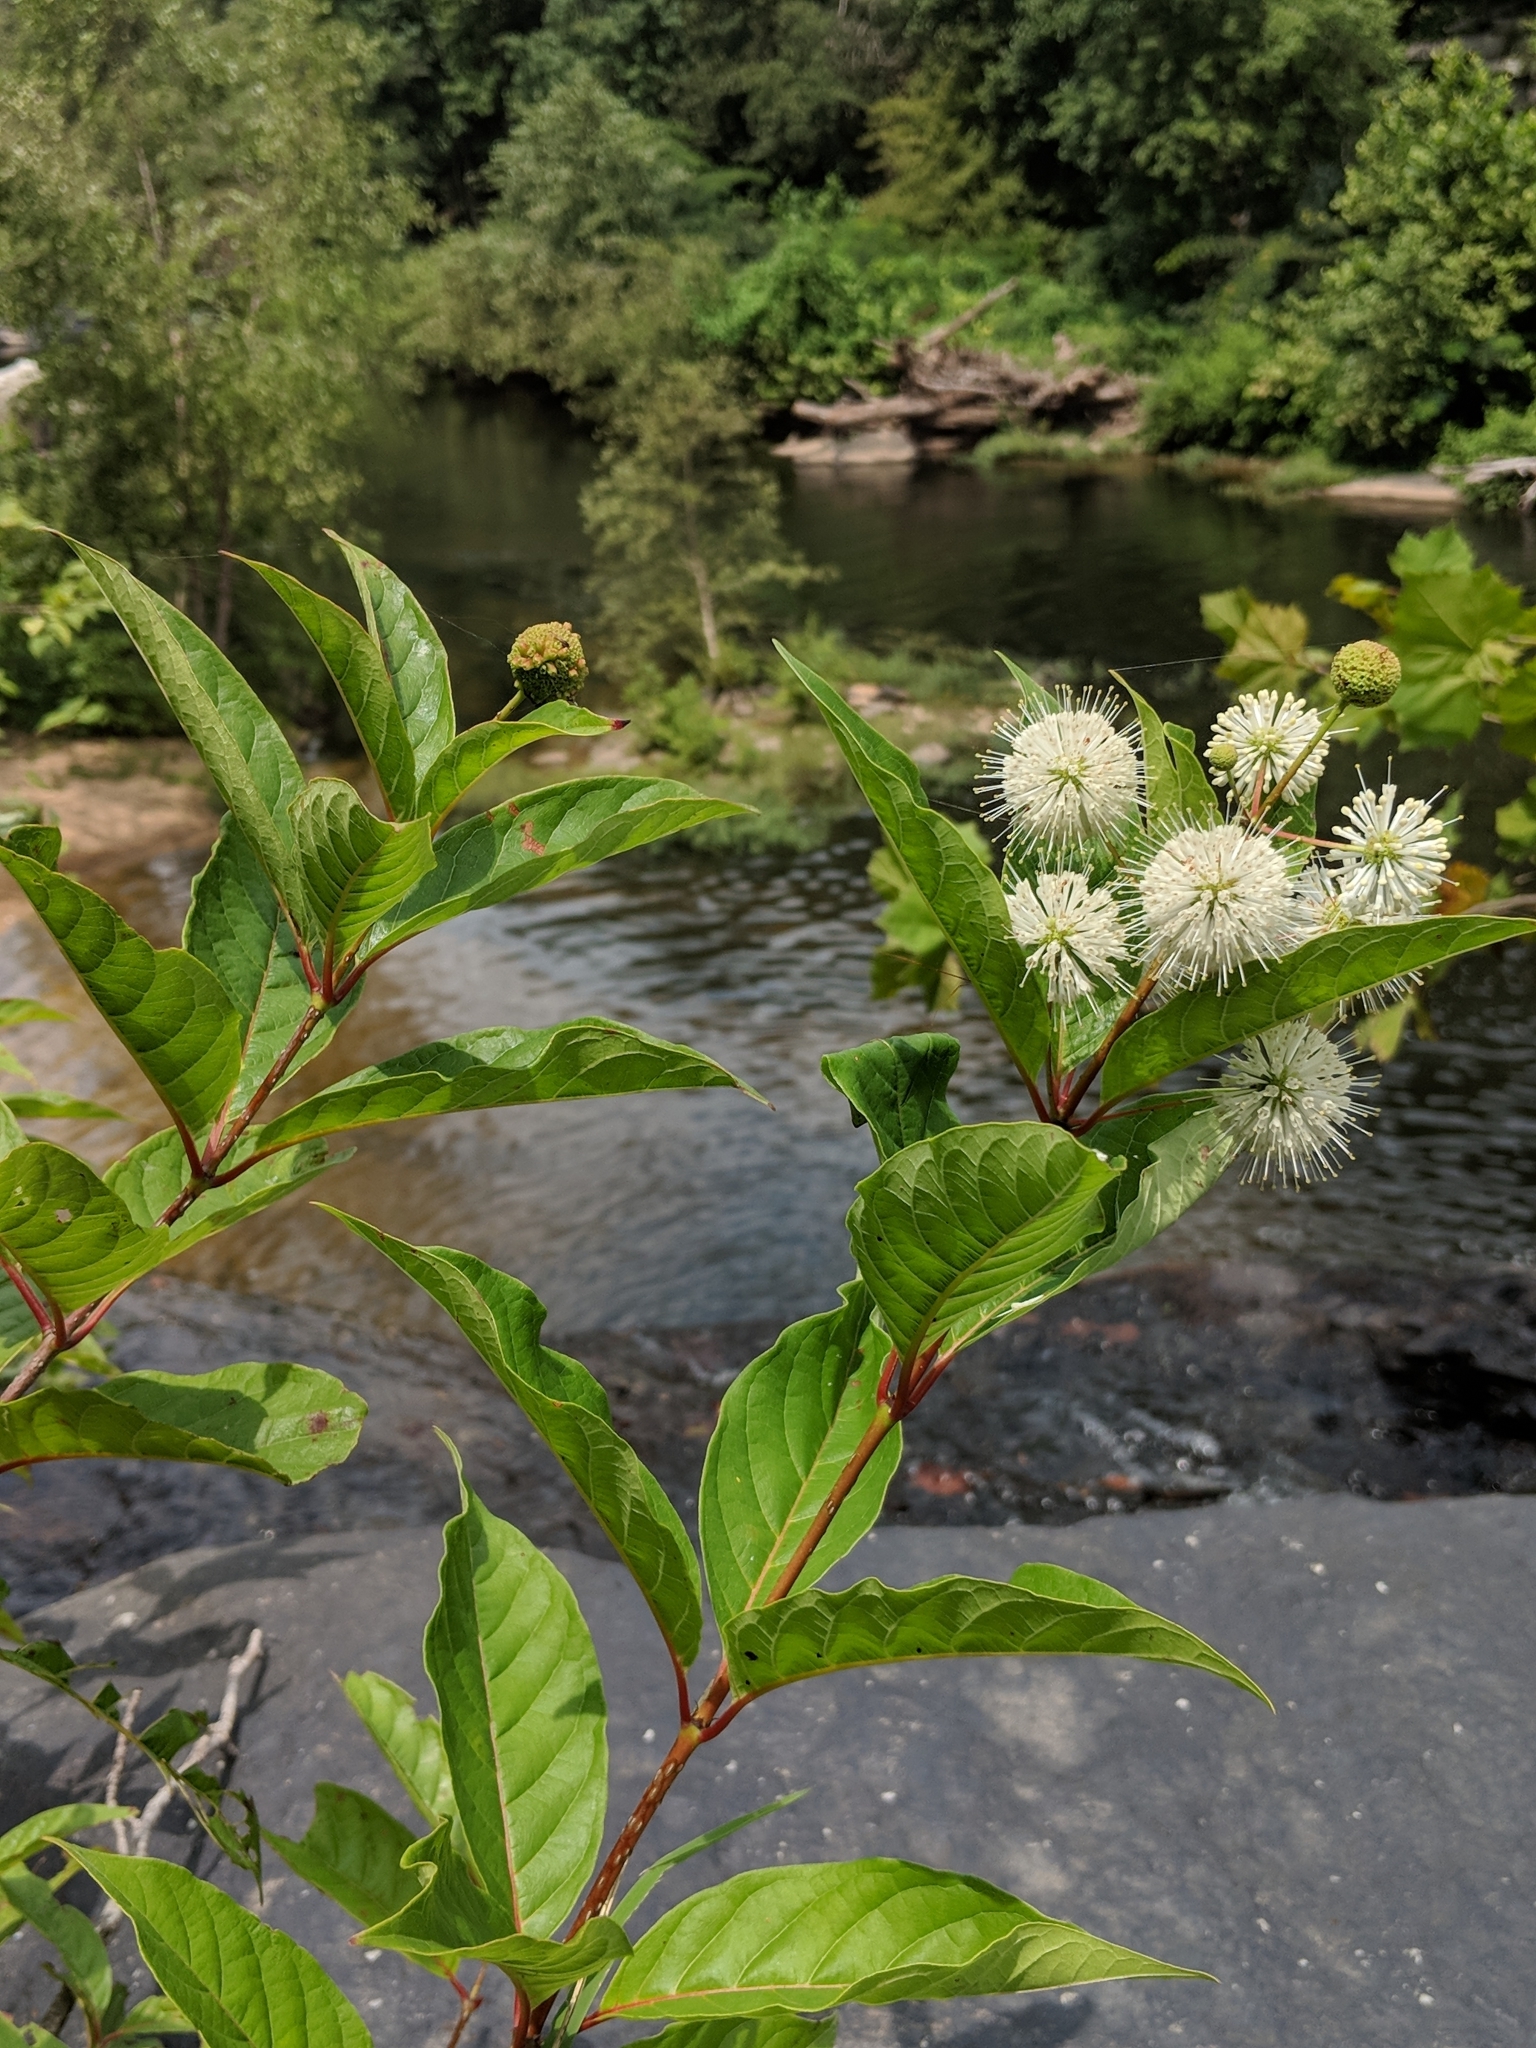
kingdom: Plantae
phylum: Tracheophyta
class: Magnoliopsida
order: Gentianales
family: Rubiaceae
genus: Cephalanthus
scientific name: Cephalanthus occidentalis
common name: Button-willow
